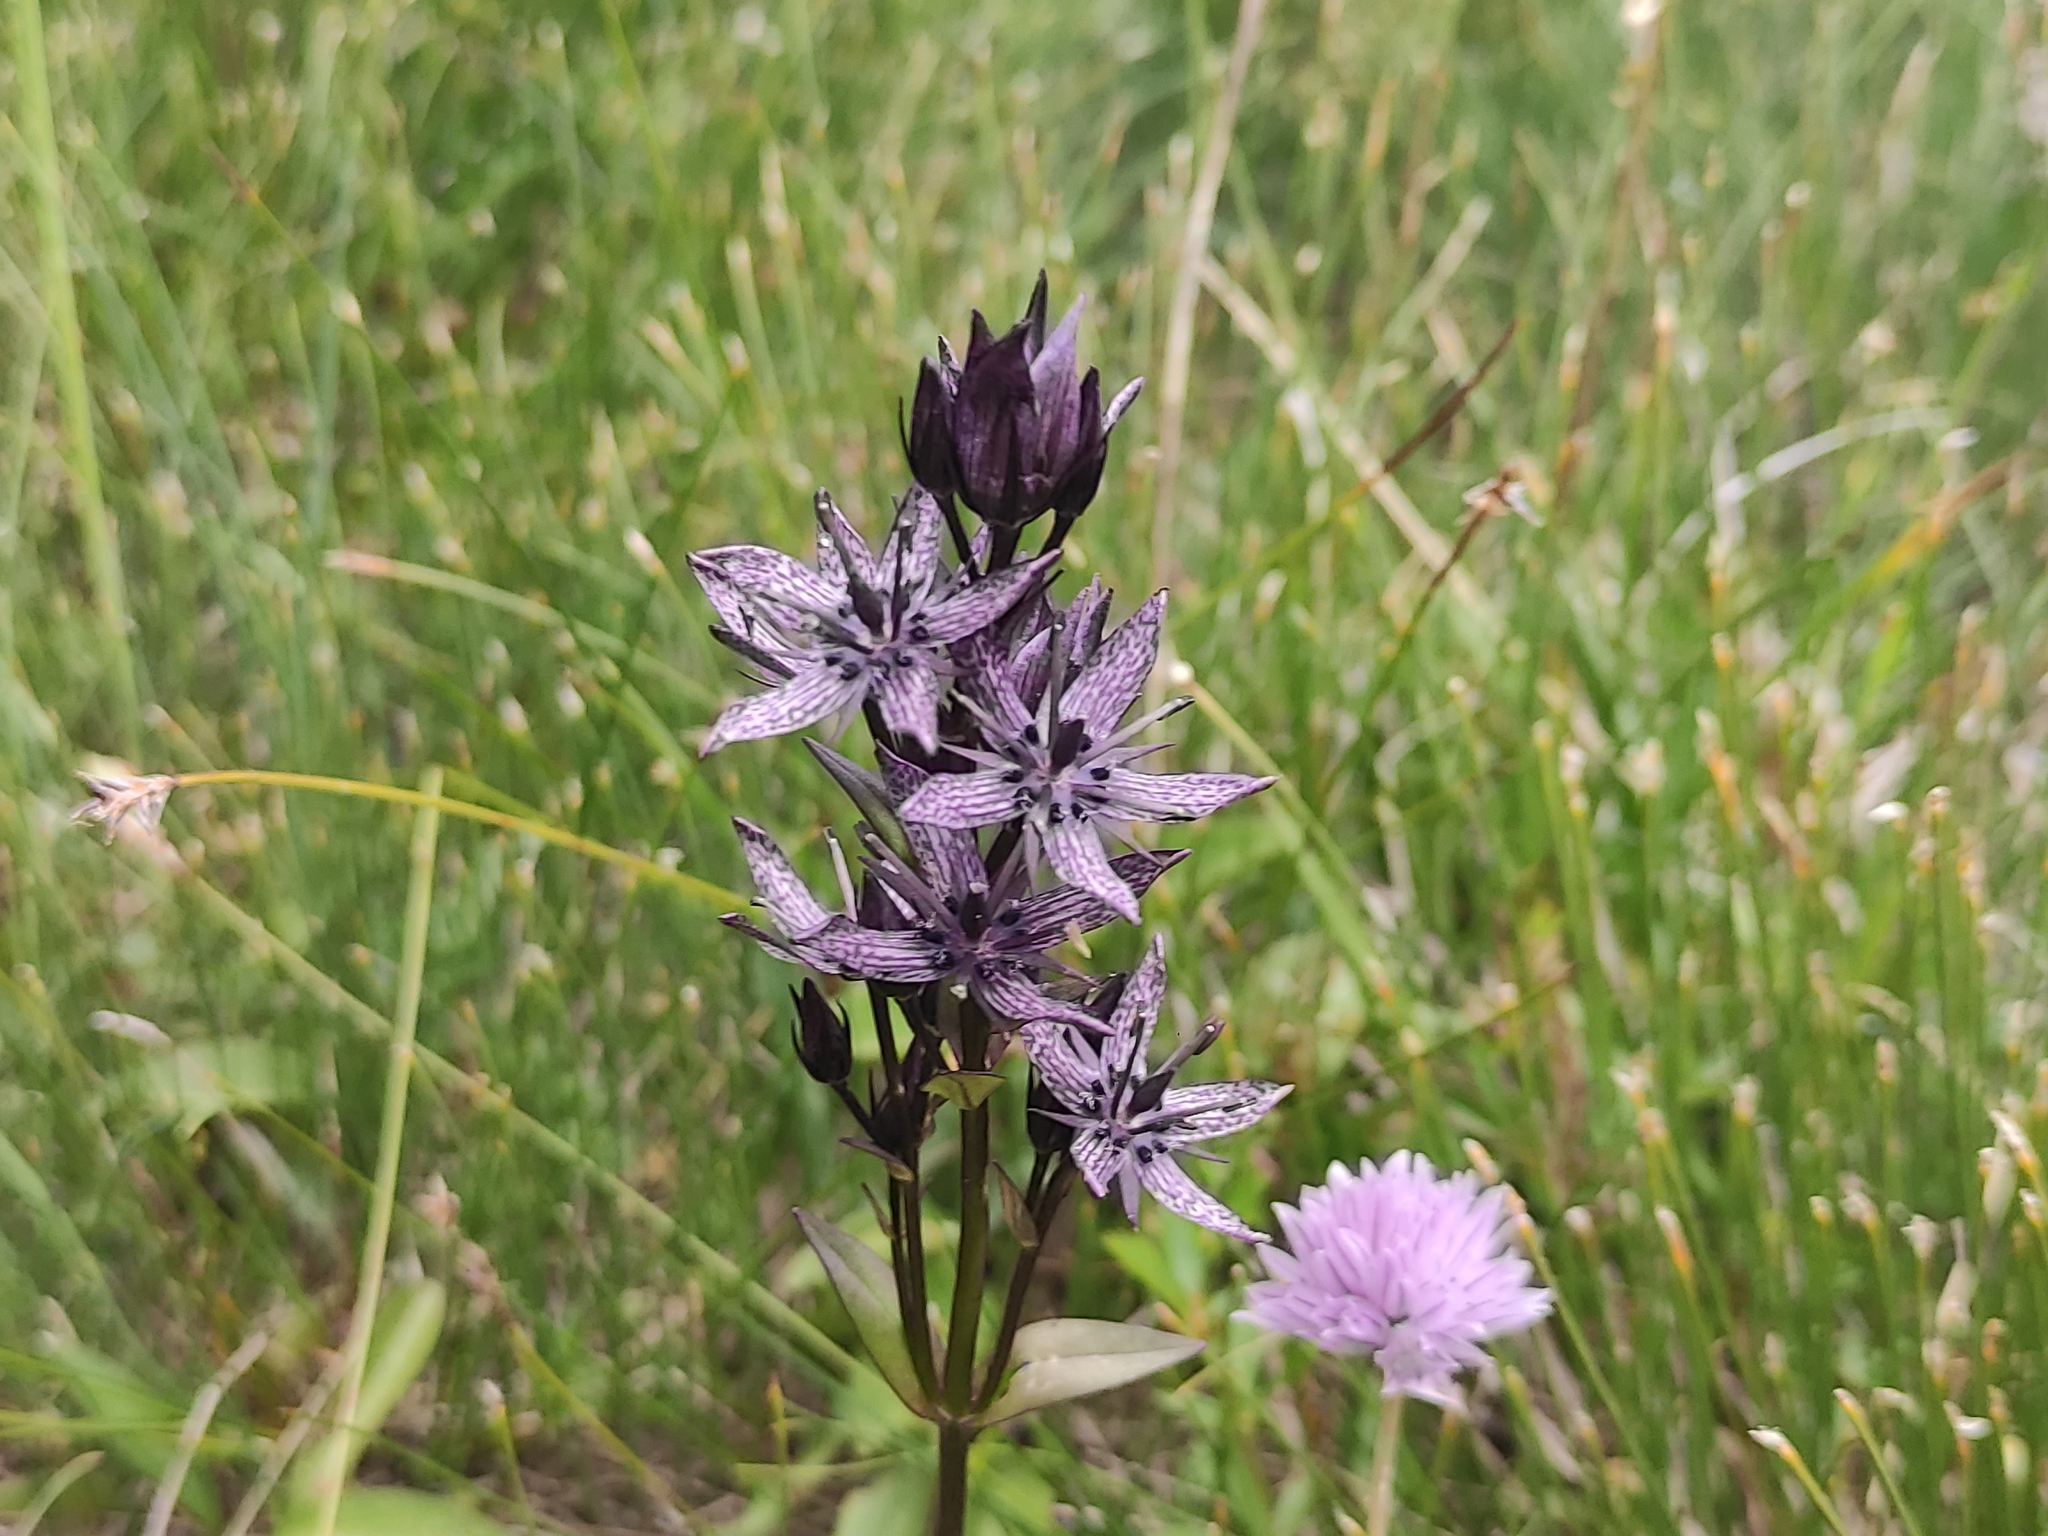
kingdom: Plantae
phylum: Tracheophyta
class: Magnoliopsida
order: Gentianales
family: Gentianaceae
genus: Swertia
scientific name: Swertia perennis
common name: Alpine bog swertia
